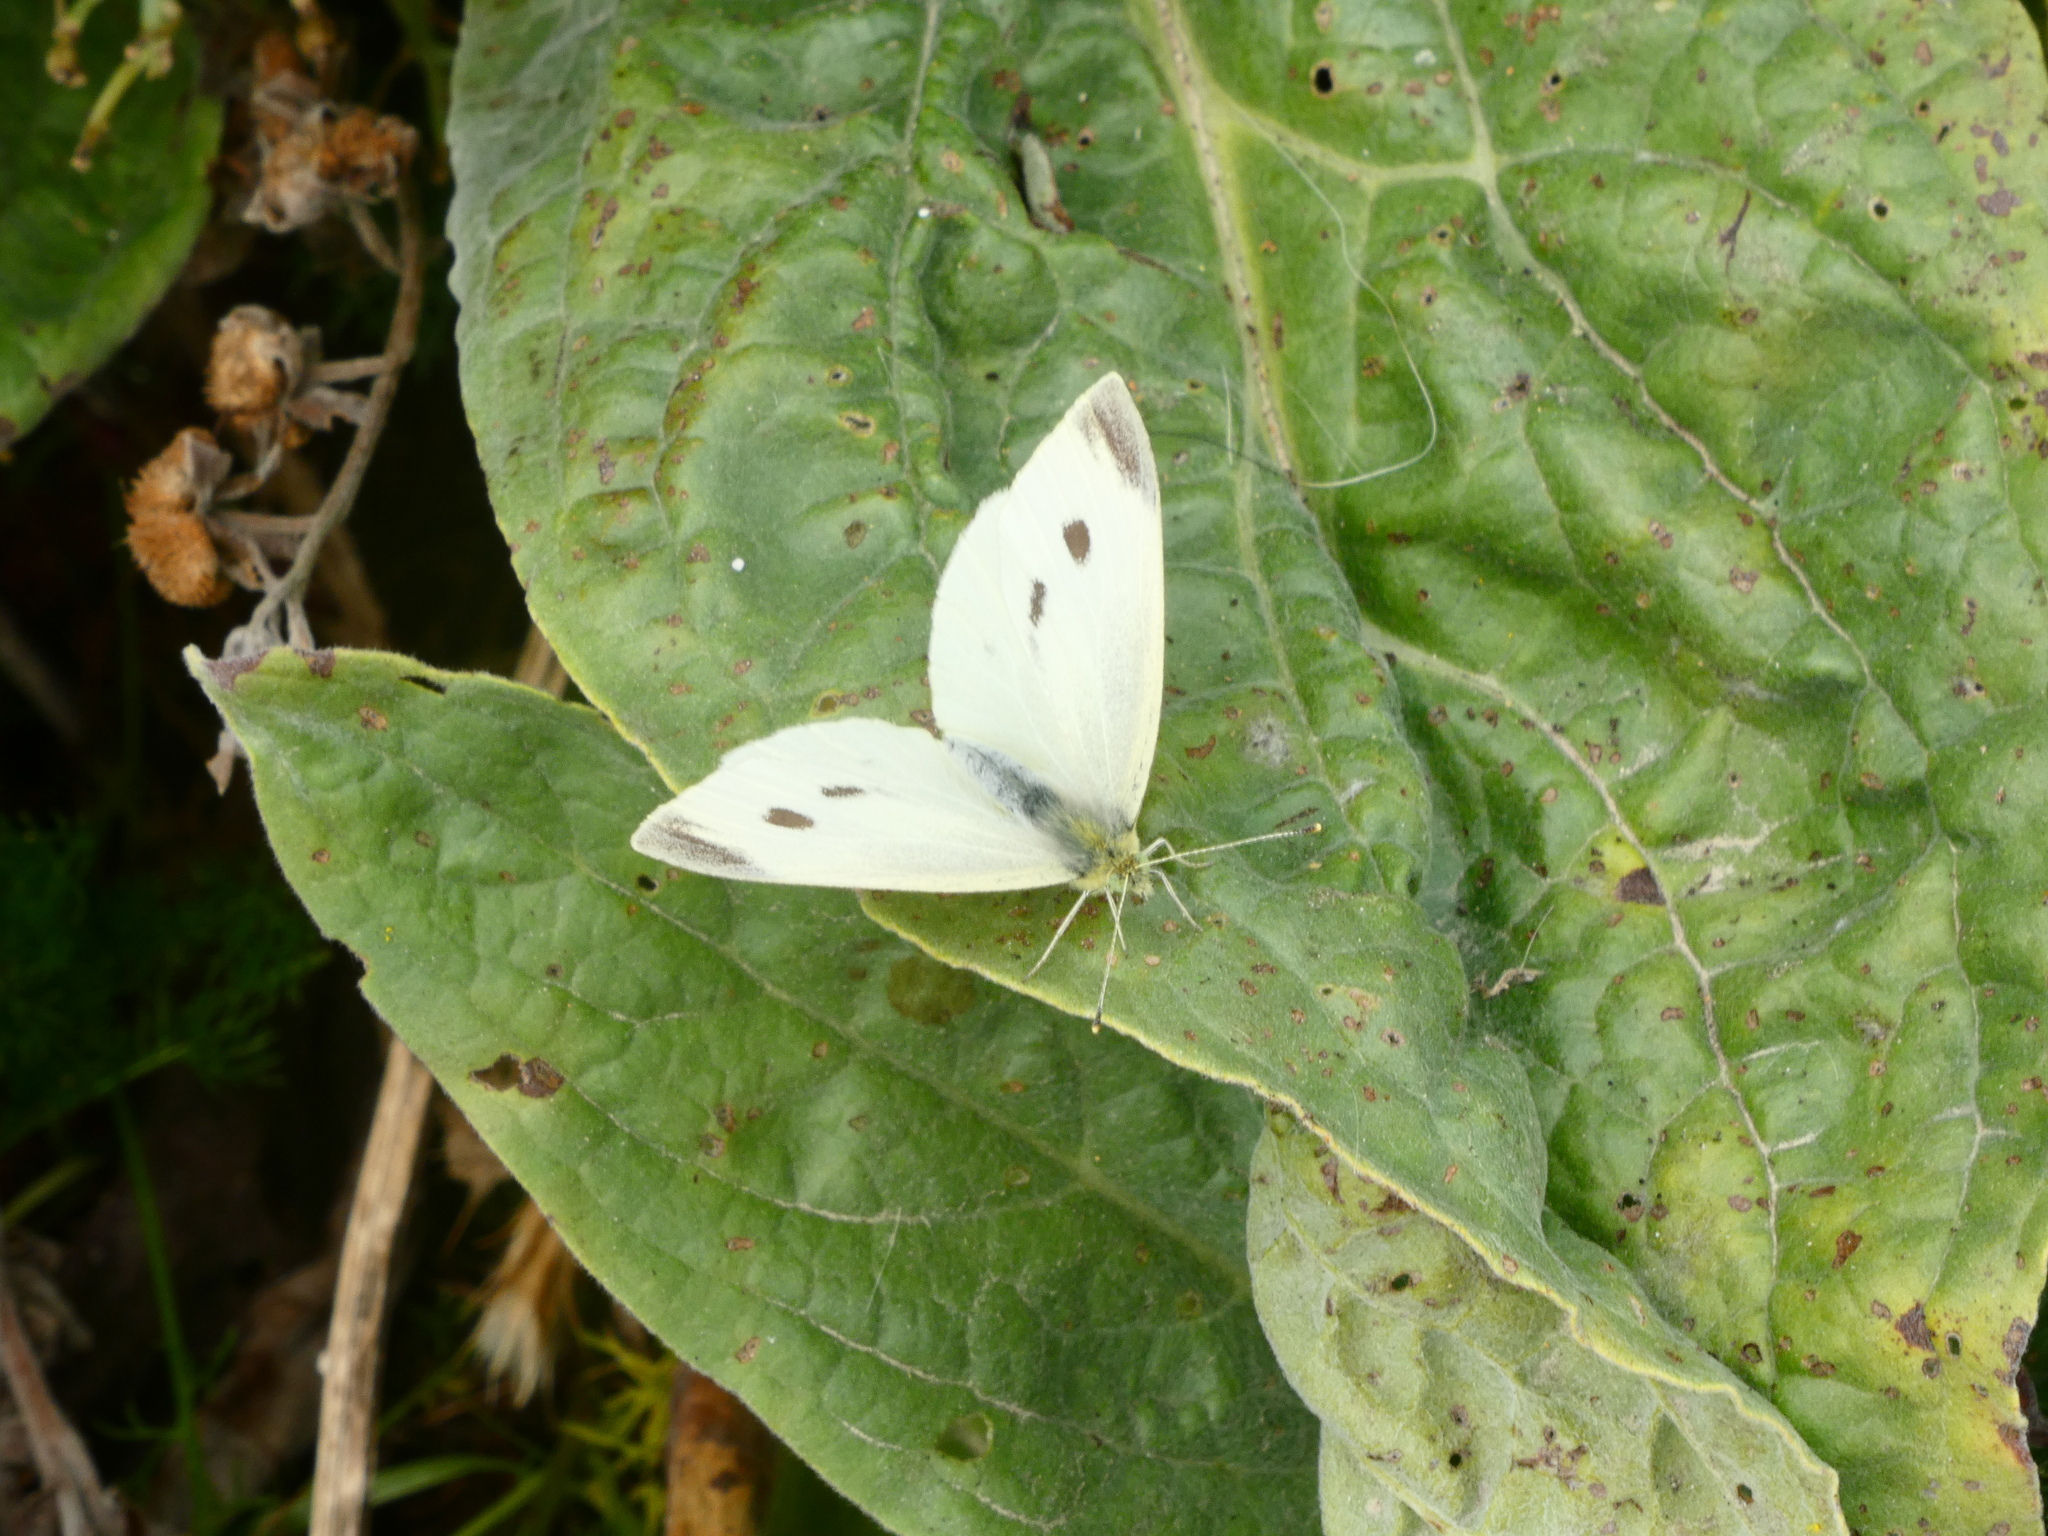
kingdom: Animalia
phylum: Arthropoda
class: Insecta
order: Lepidoptera
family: Pieridae
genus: Pieris
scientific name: Pieris rapae
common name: Small white
